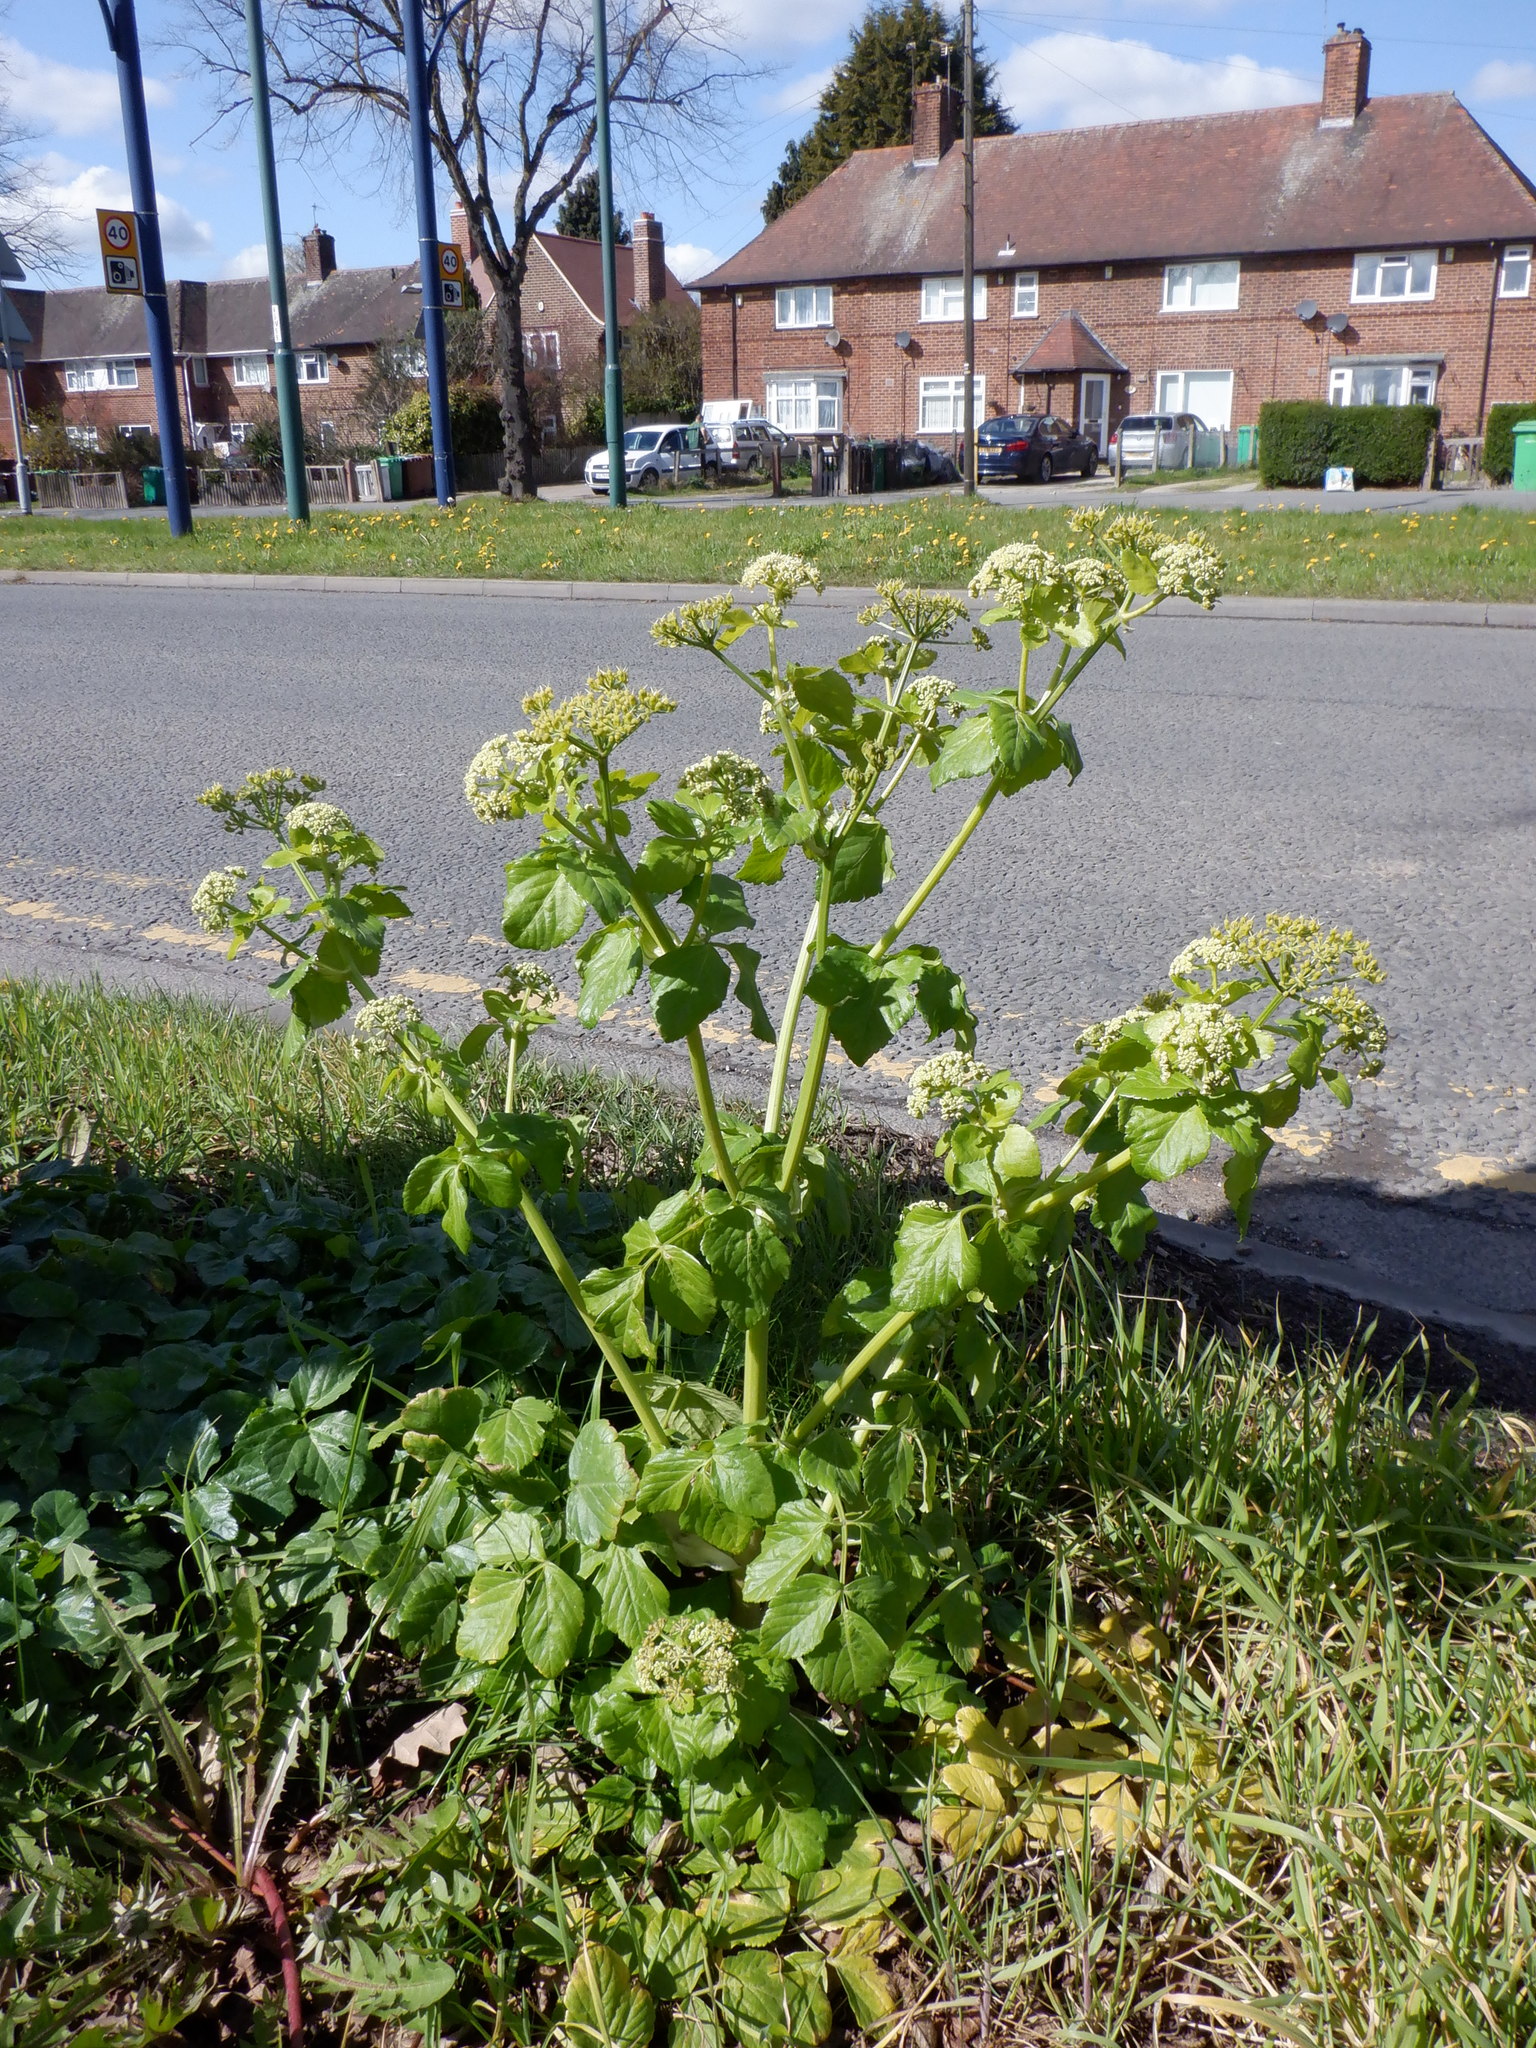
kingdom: Plantae
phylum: Tracheophyta
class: Magnoliopsida
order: Apiales
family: Apiaceae
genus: Smyrnium
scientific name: Smyrnium olusatrum
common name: Alexanders
